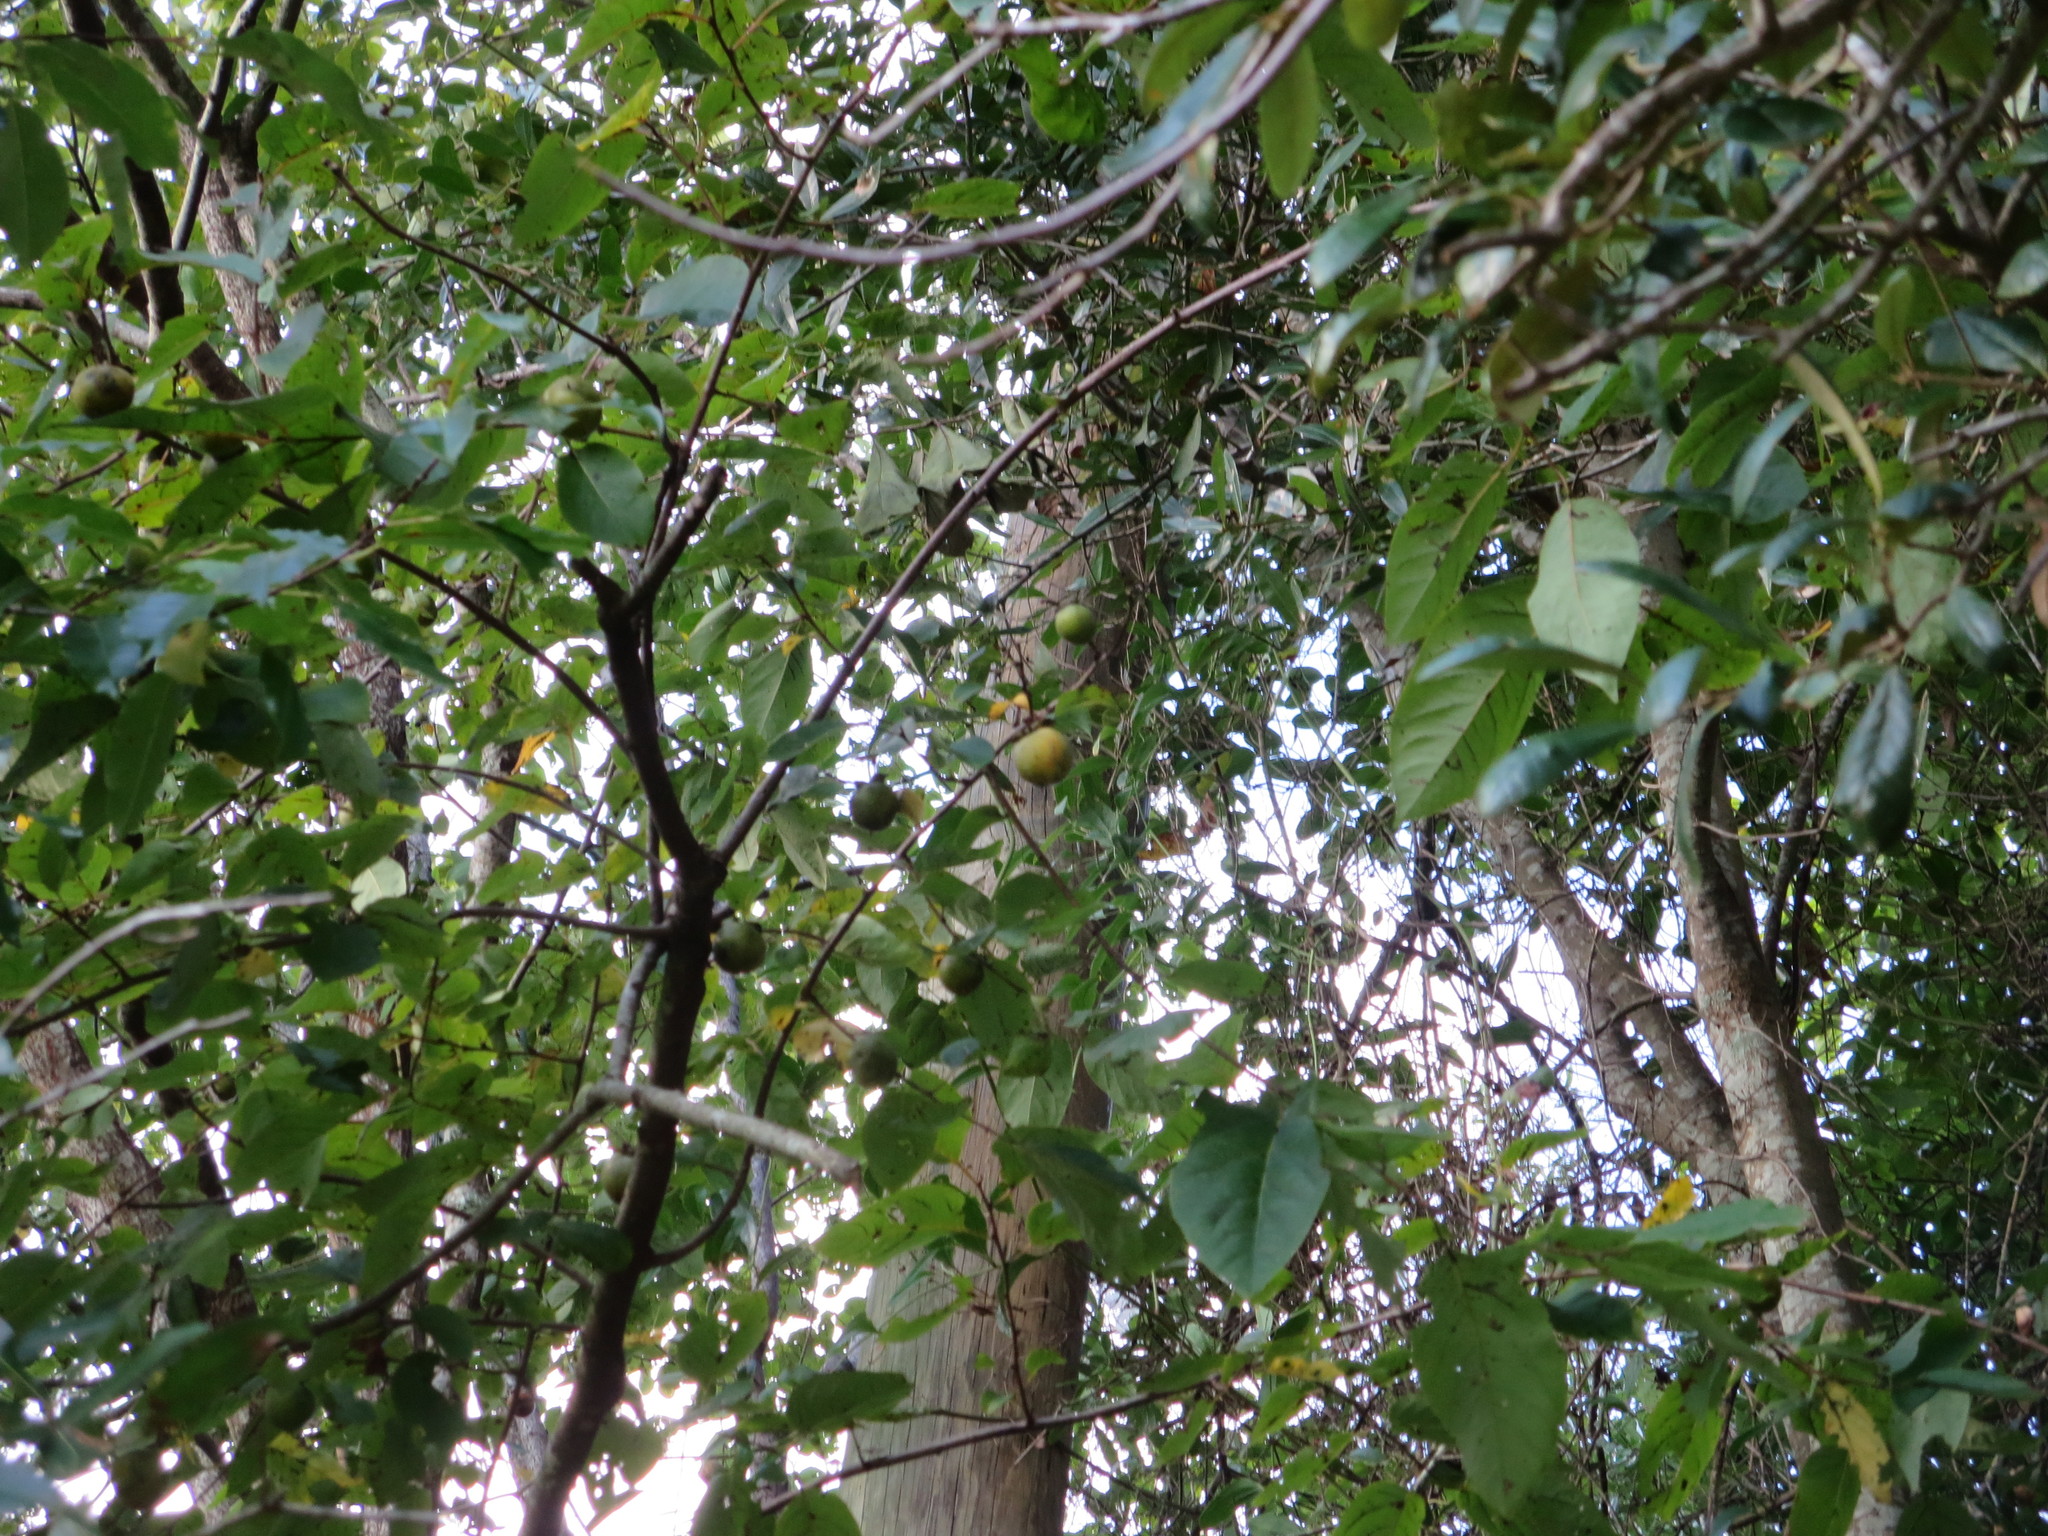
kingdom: Plantae
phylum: Tracheophyta
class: Magnoliopsida
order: Ericales
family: Ebenaceae
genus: Diospyros
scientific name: Diospyros virginiana
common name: Persimmon
